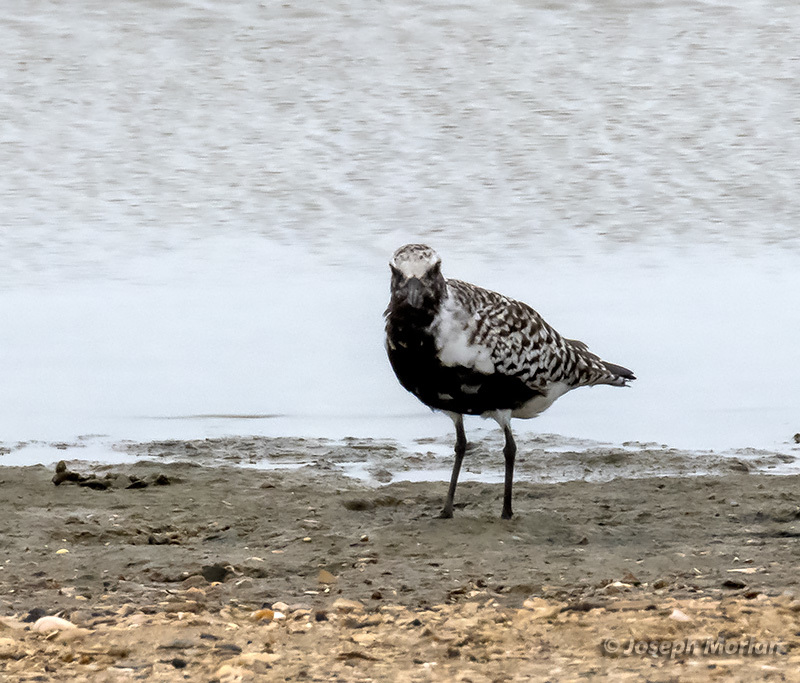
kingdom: Animalia
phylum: Chordata
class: Aves
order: Charadriiformes
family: Charadriidae
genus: Pluvialis
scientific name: Pluvialis squatarola
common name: Grey plover
